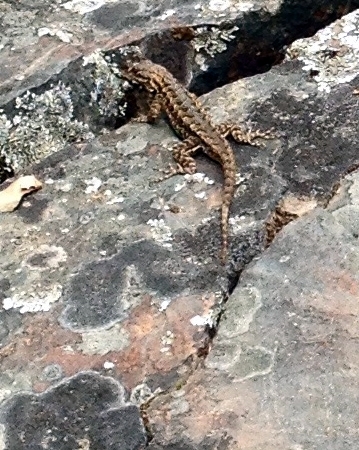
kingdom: Animalia
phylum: Chordata
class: Squamata
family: Phrynosomatidae
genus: Sceloporus
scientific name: Sceloporus occidentalis
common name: Western fence lizard
